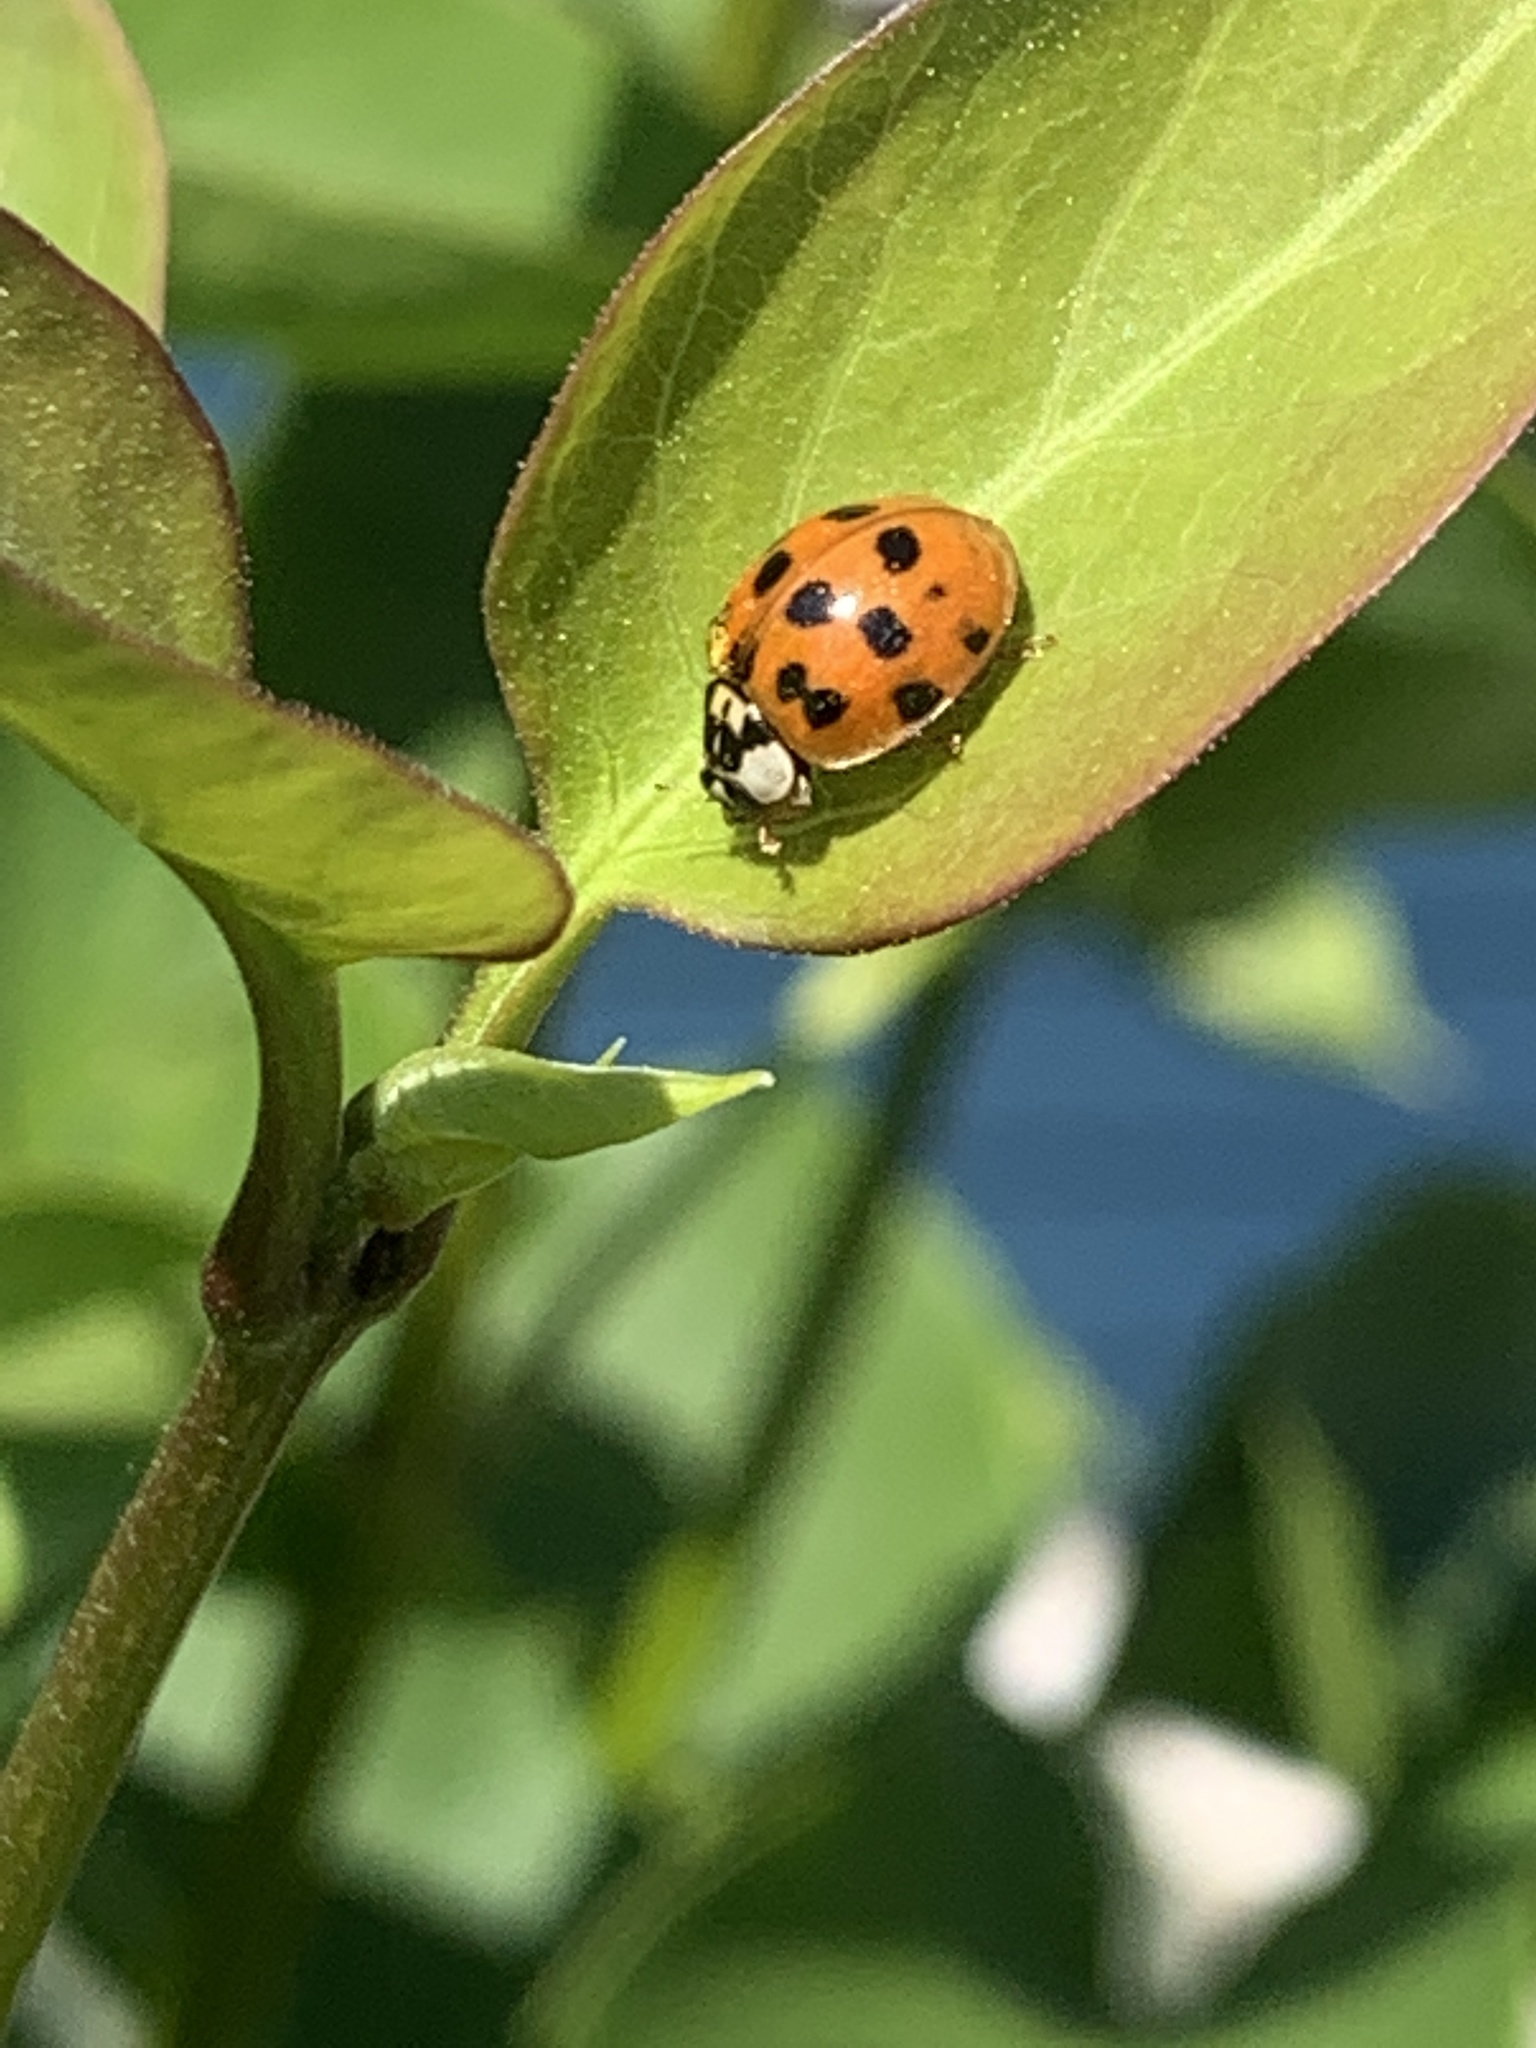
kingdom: Animalia
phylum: Arthropoda
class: Insecta
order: Coleoptera
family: Coccinellidae
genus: Harmonia
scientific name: Harmonia axyridis
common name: Harlequin ladybird
